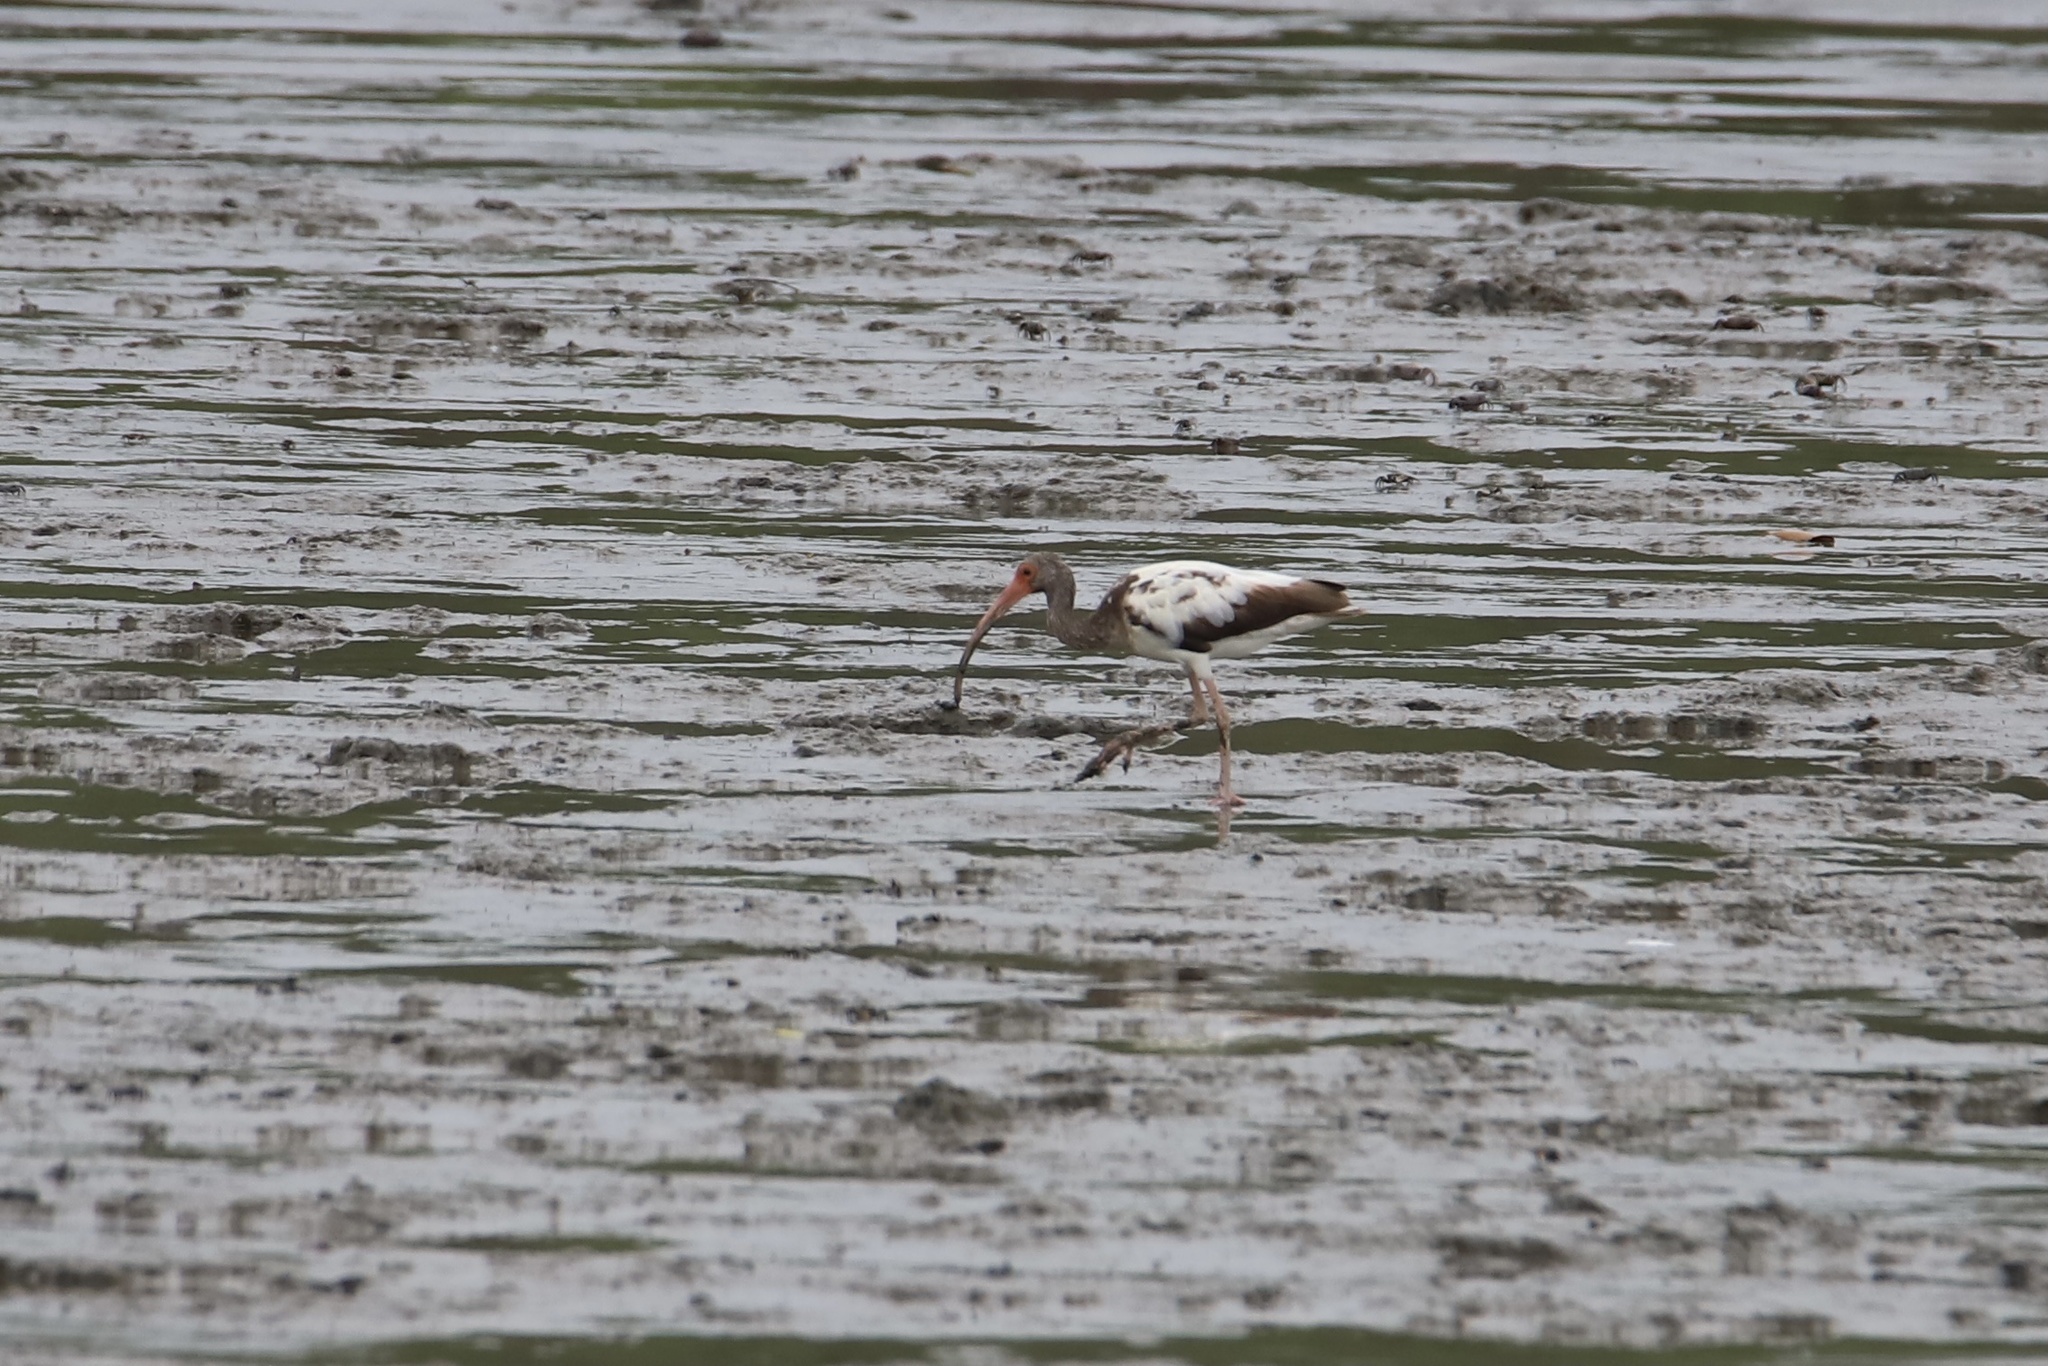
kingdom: Animalia
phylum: Chordata
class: Aves
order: Pelecaniformes
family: Threskiornithidae
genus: Eudocimus
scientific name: Eudocimus albus
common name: White ibis
